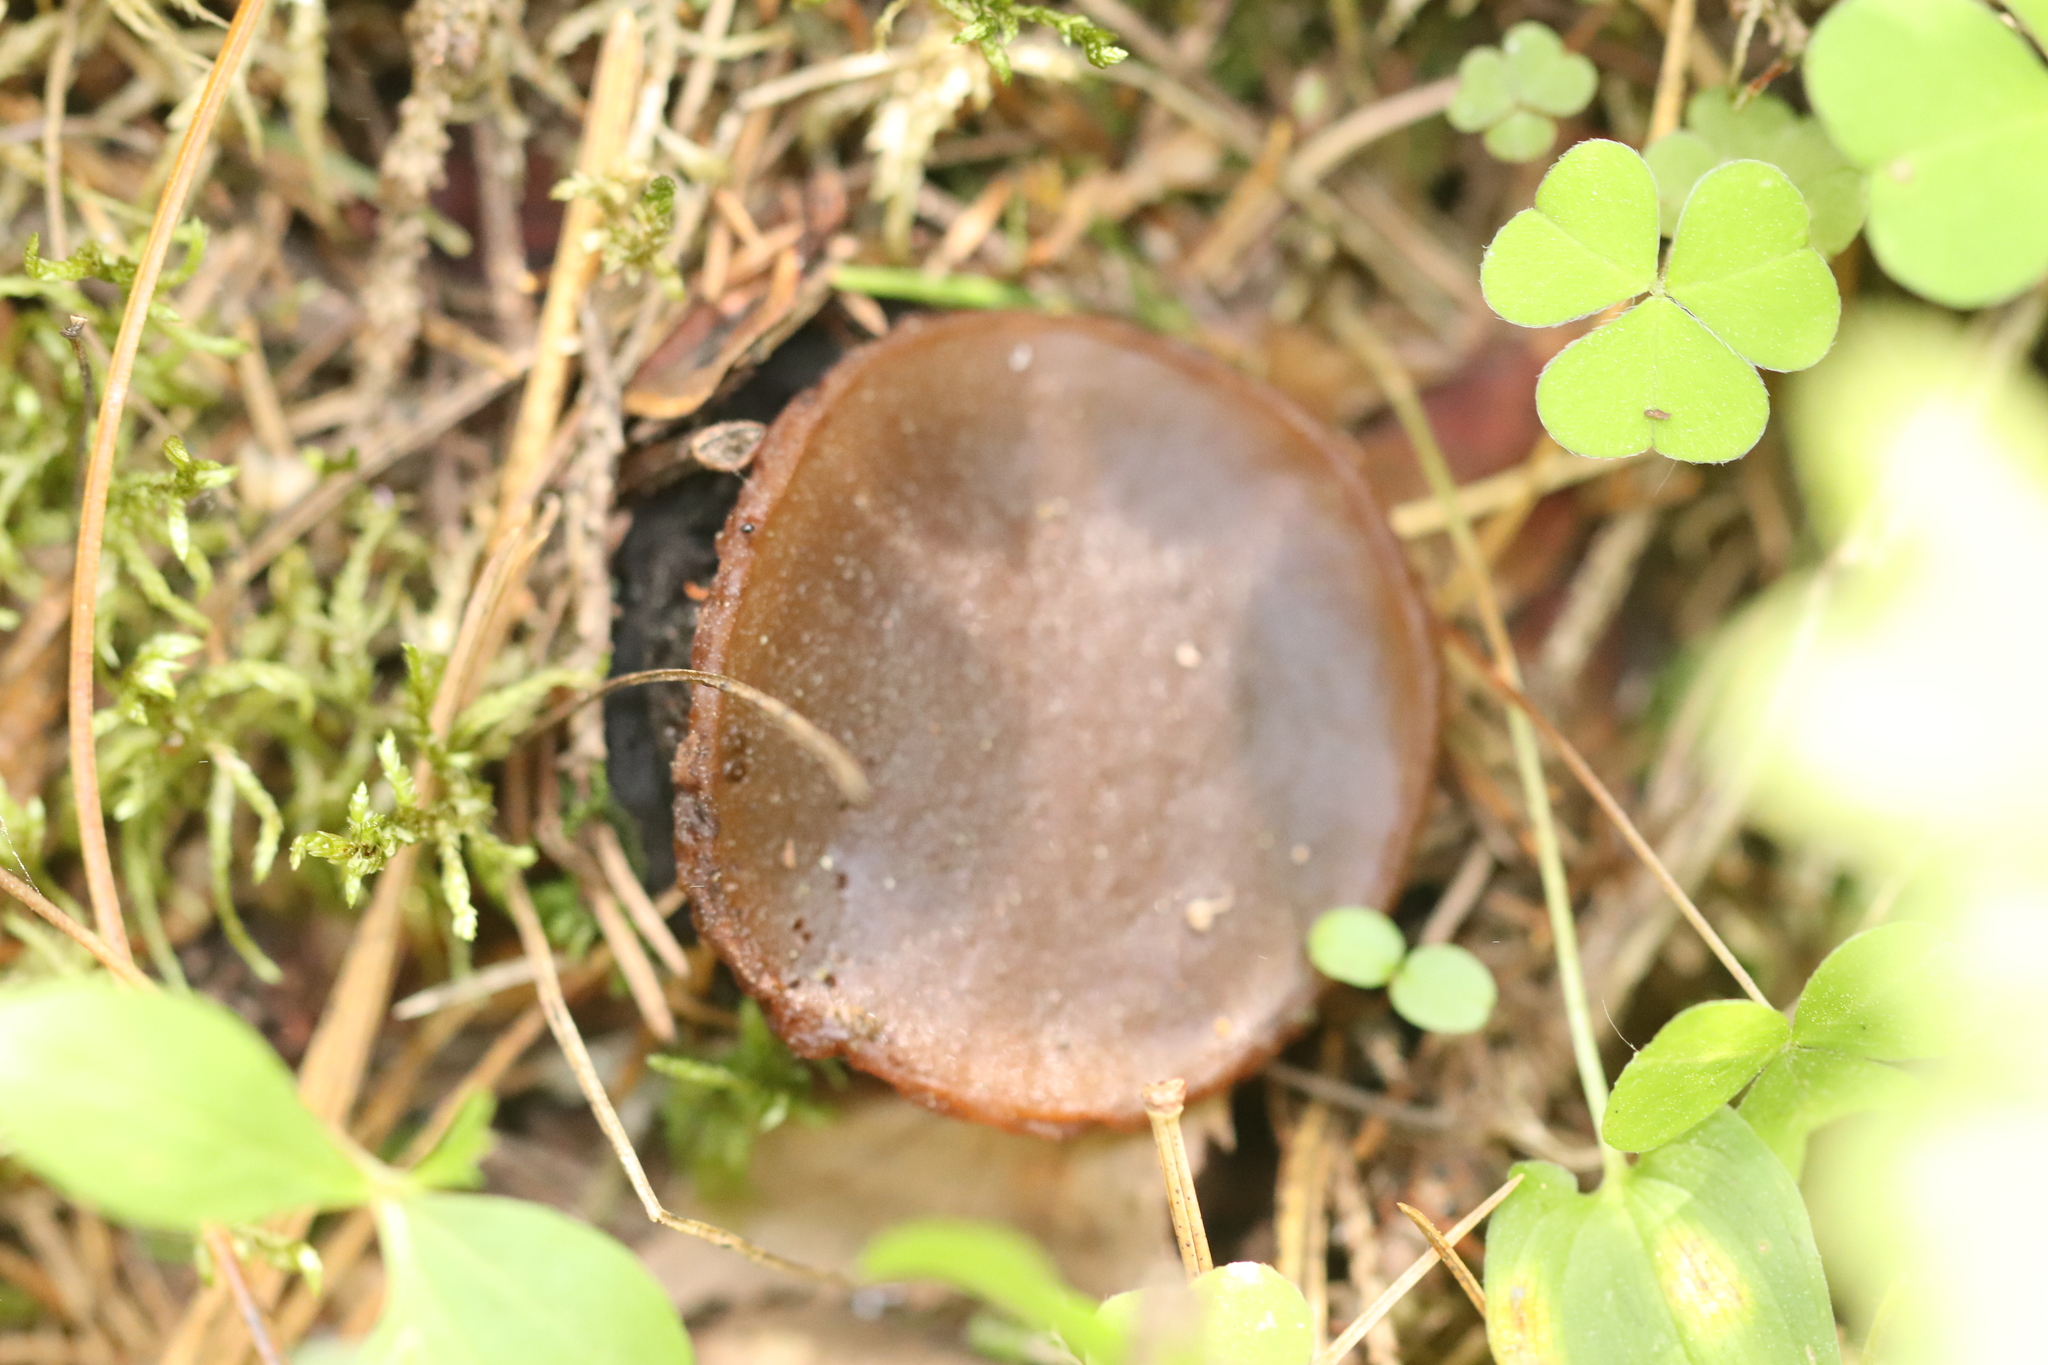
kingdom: Fungi
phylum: Ascomycota
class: Pezizomycetes
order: Pezizales
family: Sarcosomataceae
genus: Sarcosoma
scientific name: Sarcosoma globosum
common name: Charred-pancake cup
